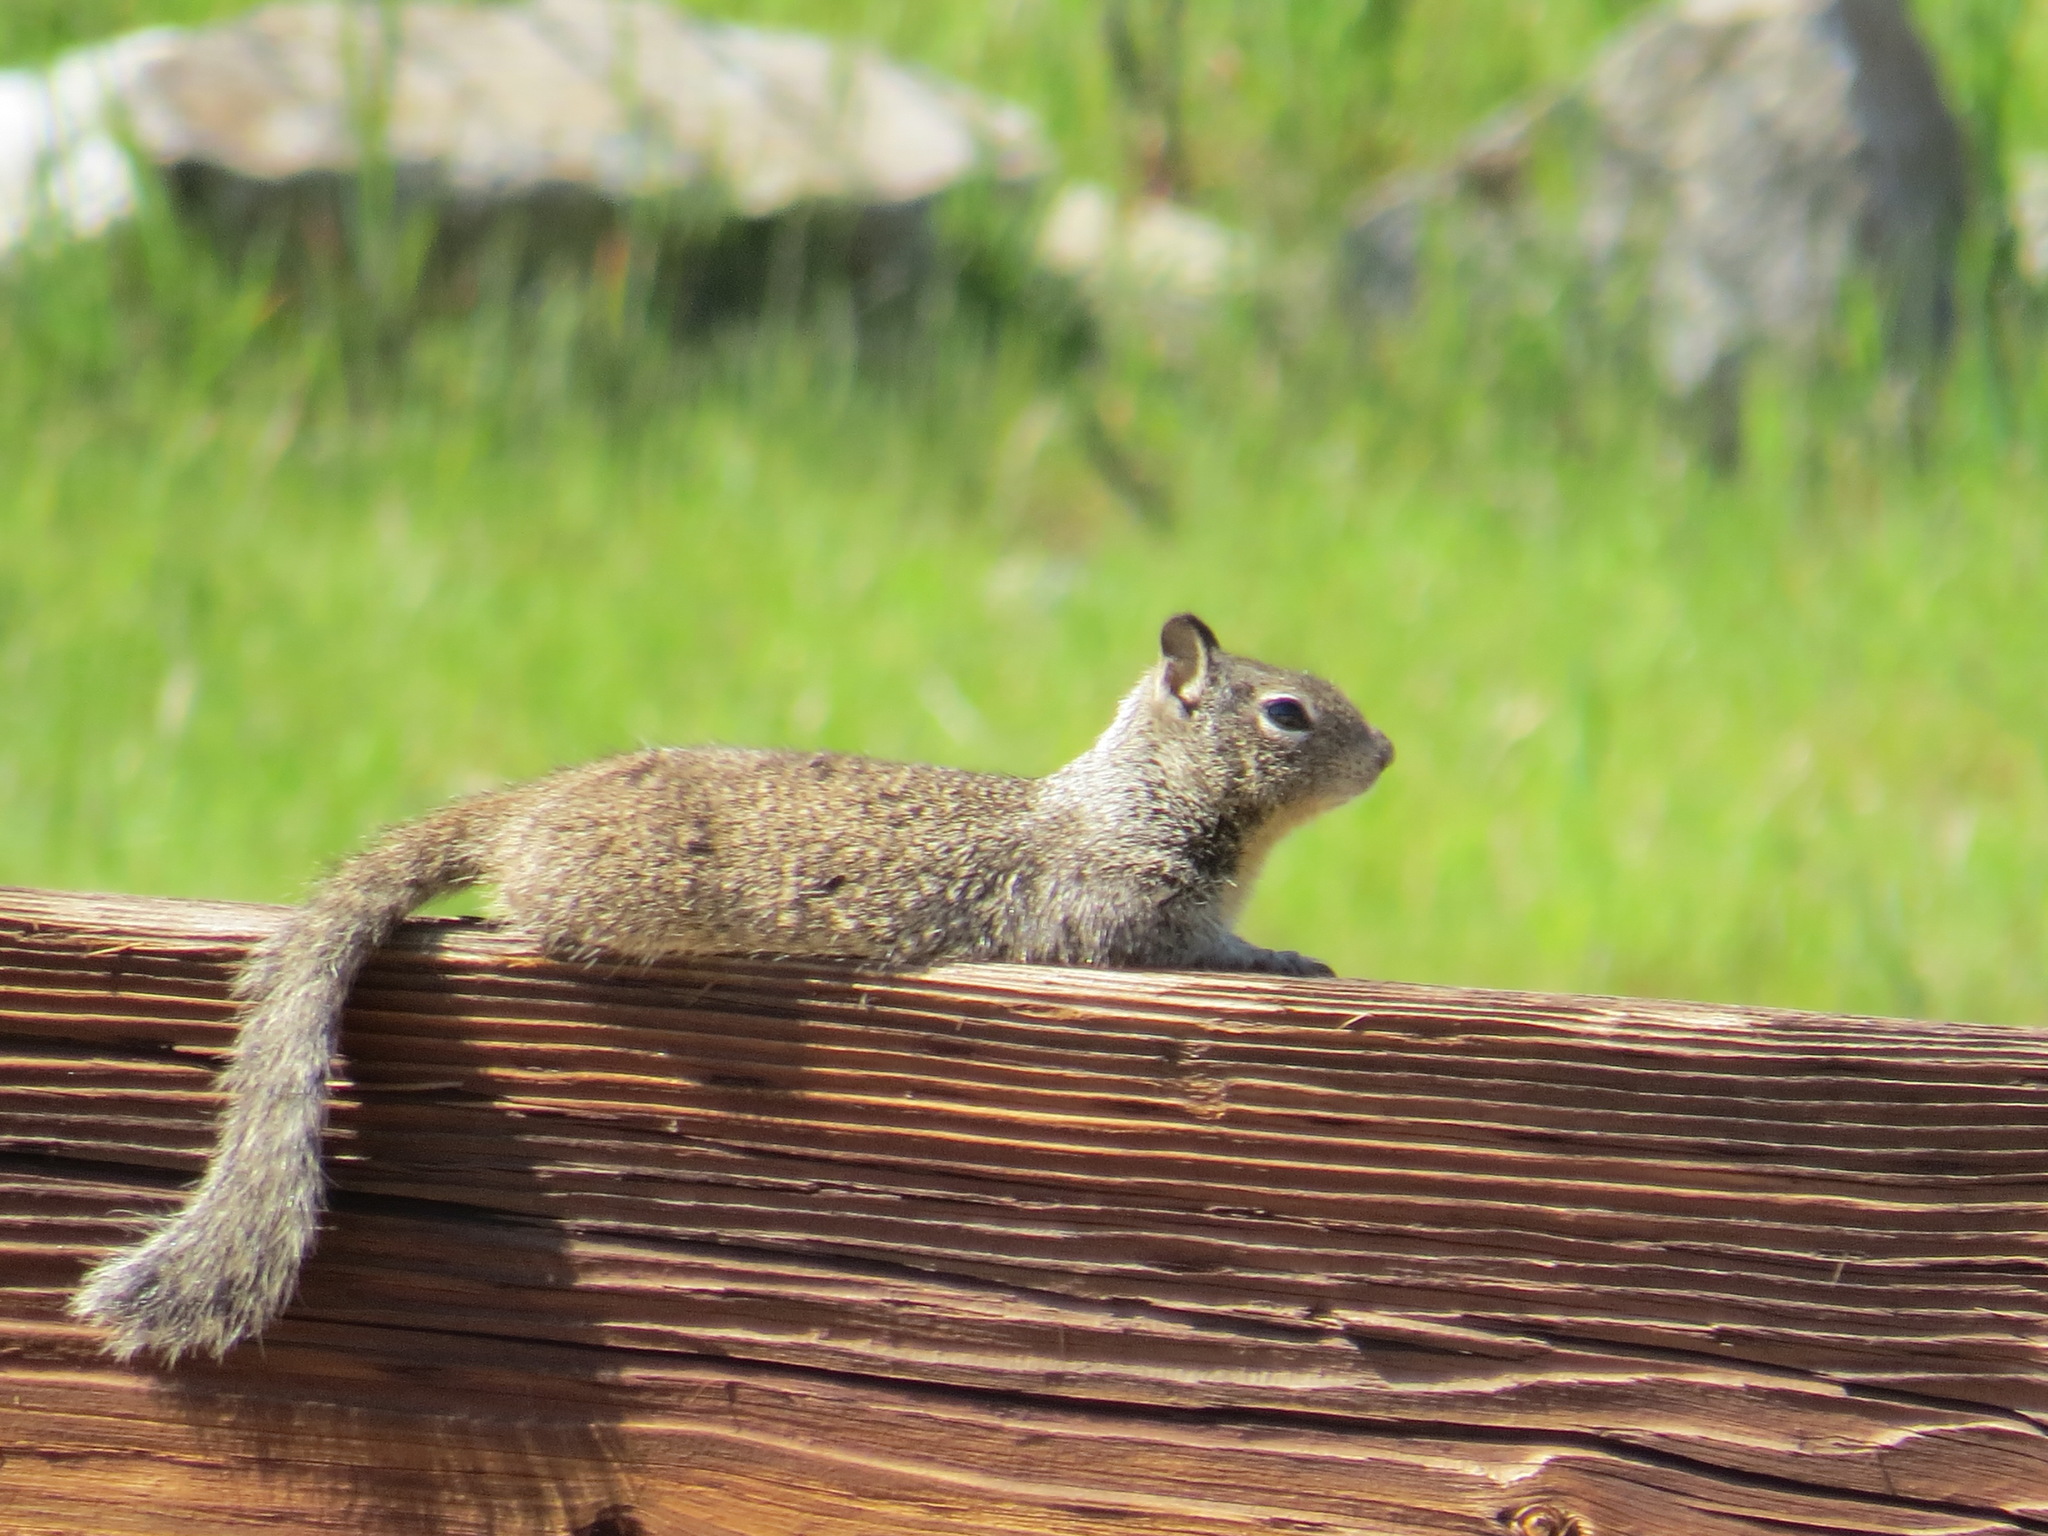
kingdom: Animalia
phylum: Chordata
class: Mammalia
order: Rodentia
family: Sciuridae
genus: Otospermophilus
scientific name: Otospermophilus beecheyi
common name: California ground squirrel
